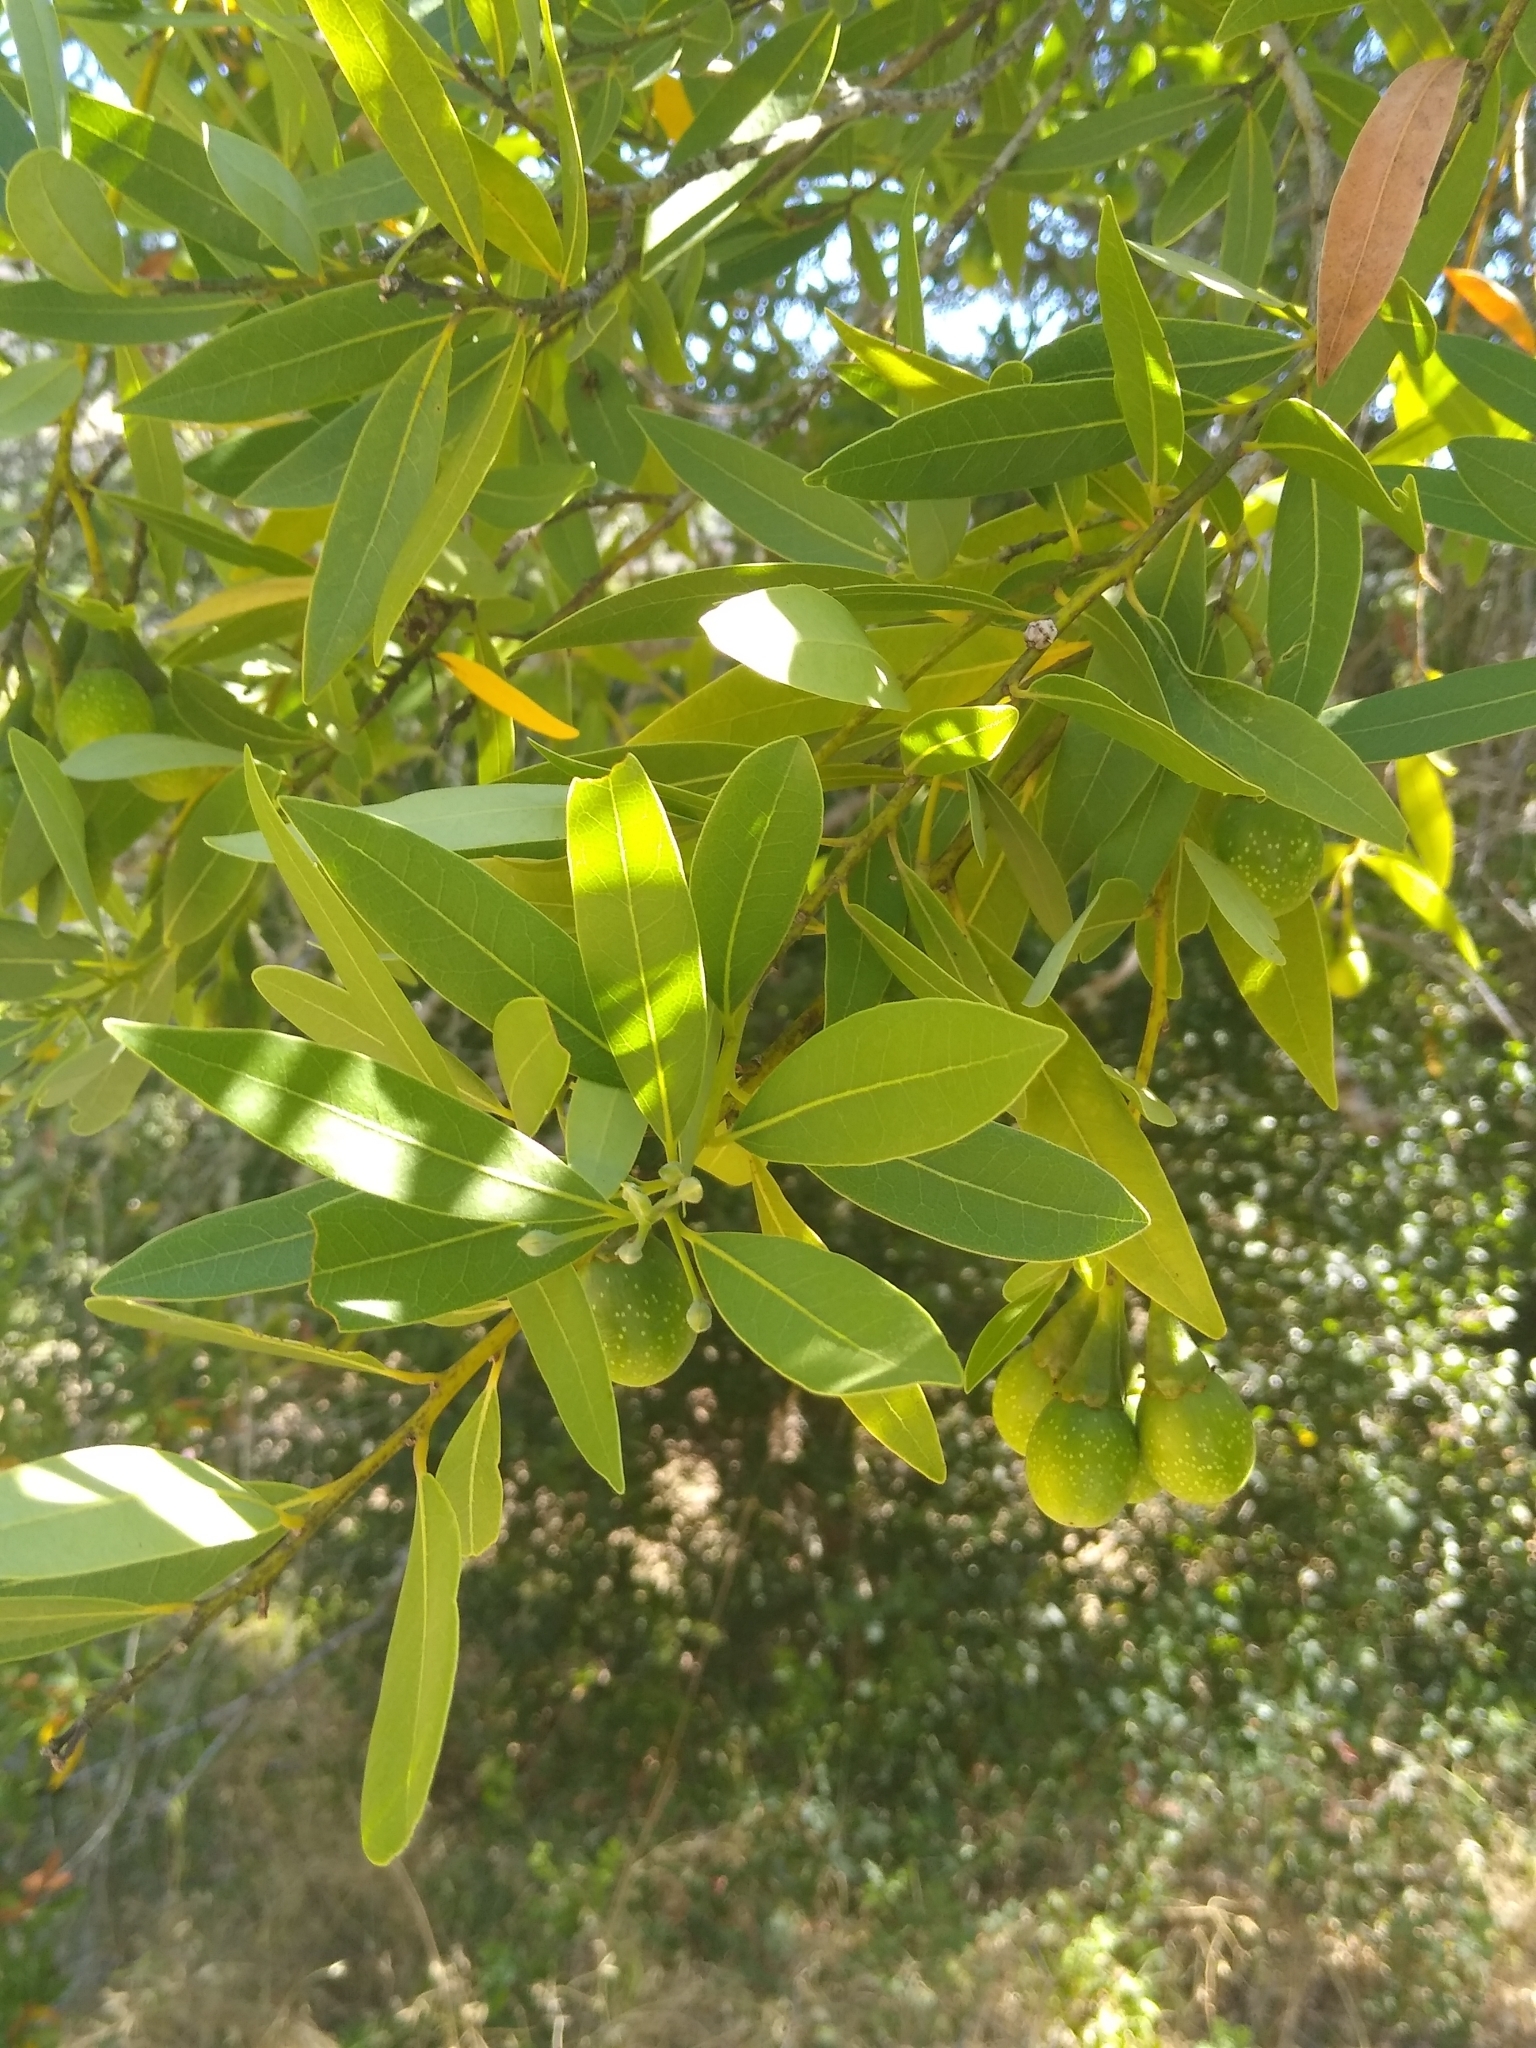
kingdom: Plantae
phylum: Tracheophyta
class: Magnoliopsida
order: Laurales
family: Lauraceae
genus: Umbellularia
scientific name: Umbellularia californica
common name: California bay
